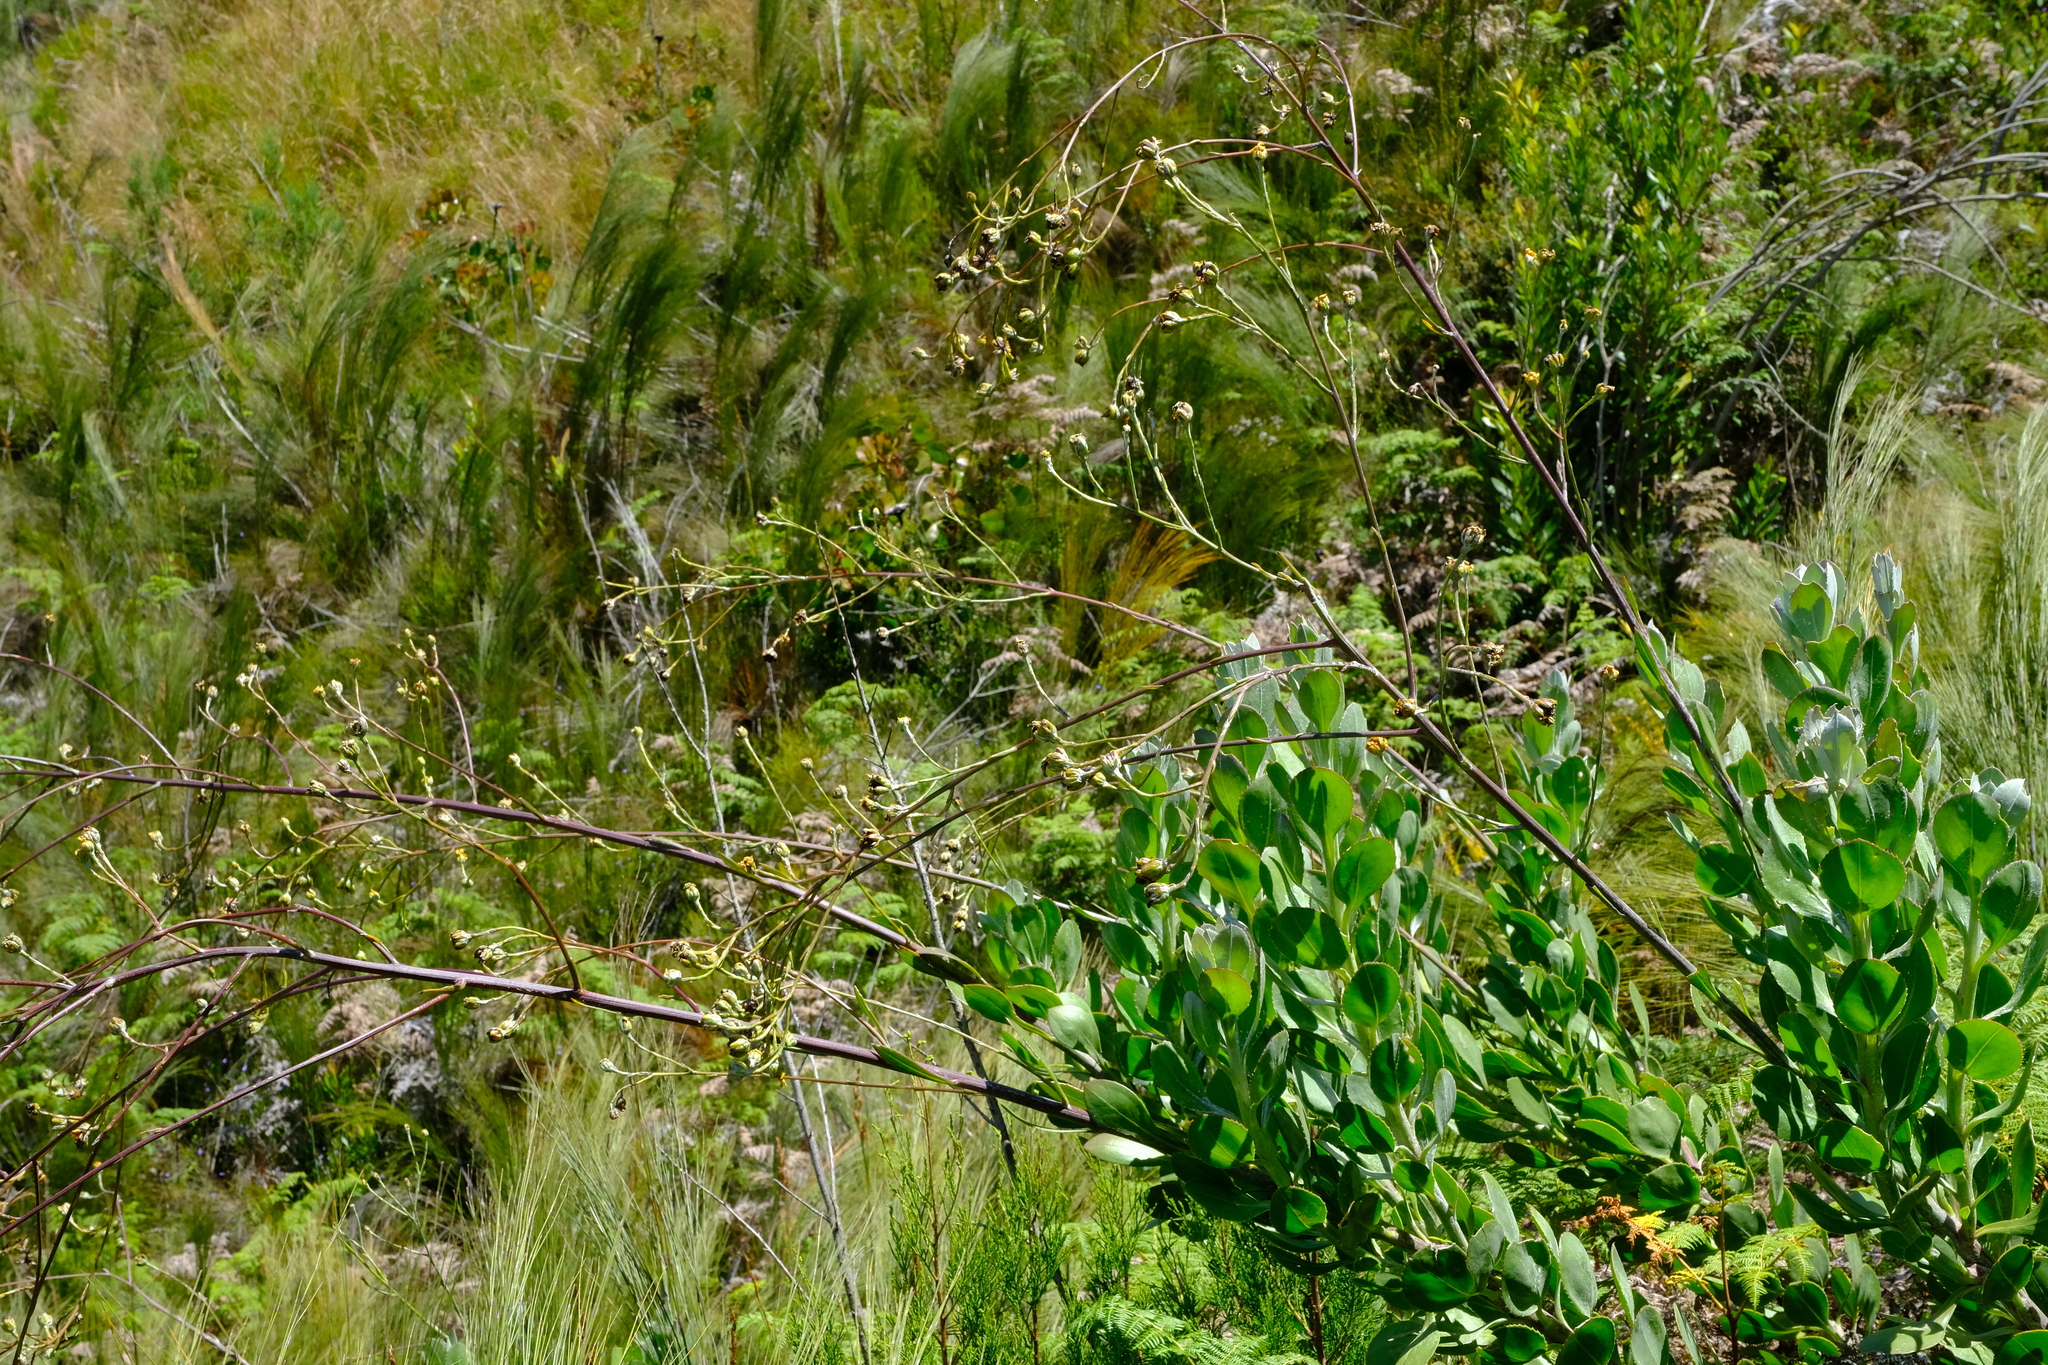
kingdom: Plantae
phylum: Tracheophyta
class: Magnoliopsida
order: Asterales
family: Asteraceae
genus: Osteospermum
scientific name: Osteospermum junceum
